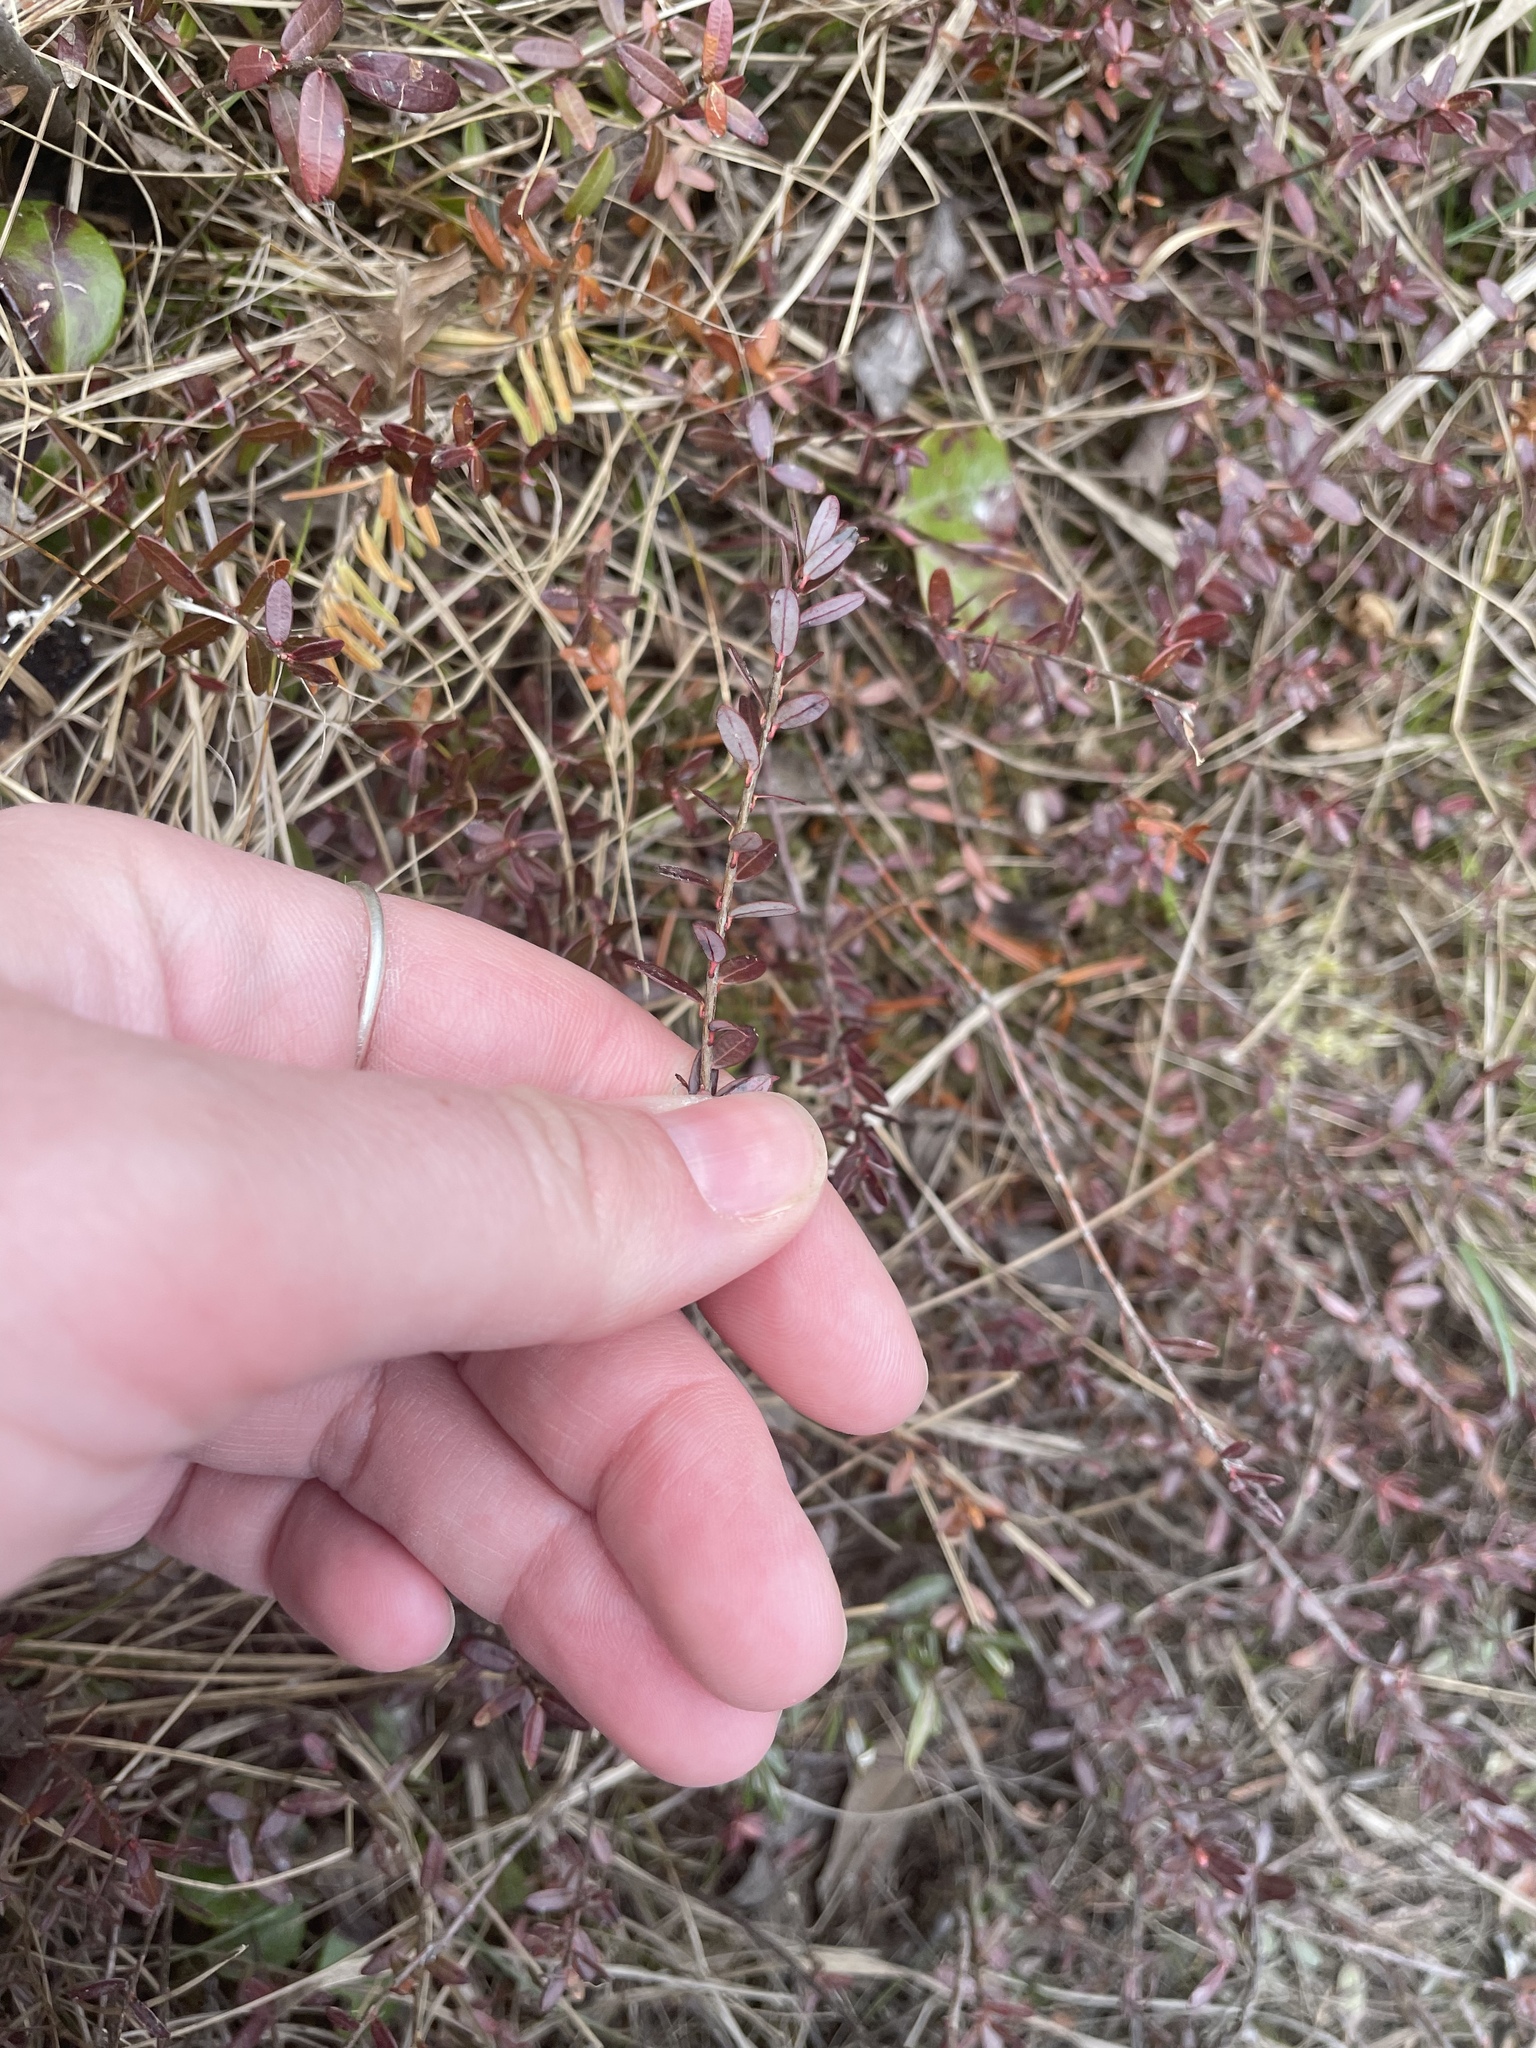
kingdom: Plantae
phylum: Tracheophyta
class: Magnoliopsida
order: Ericales
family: Ericaceae
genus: Vaccinium
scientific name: Vaccinium macrocarpon
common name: American cranberry
